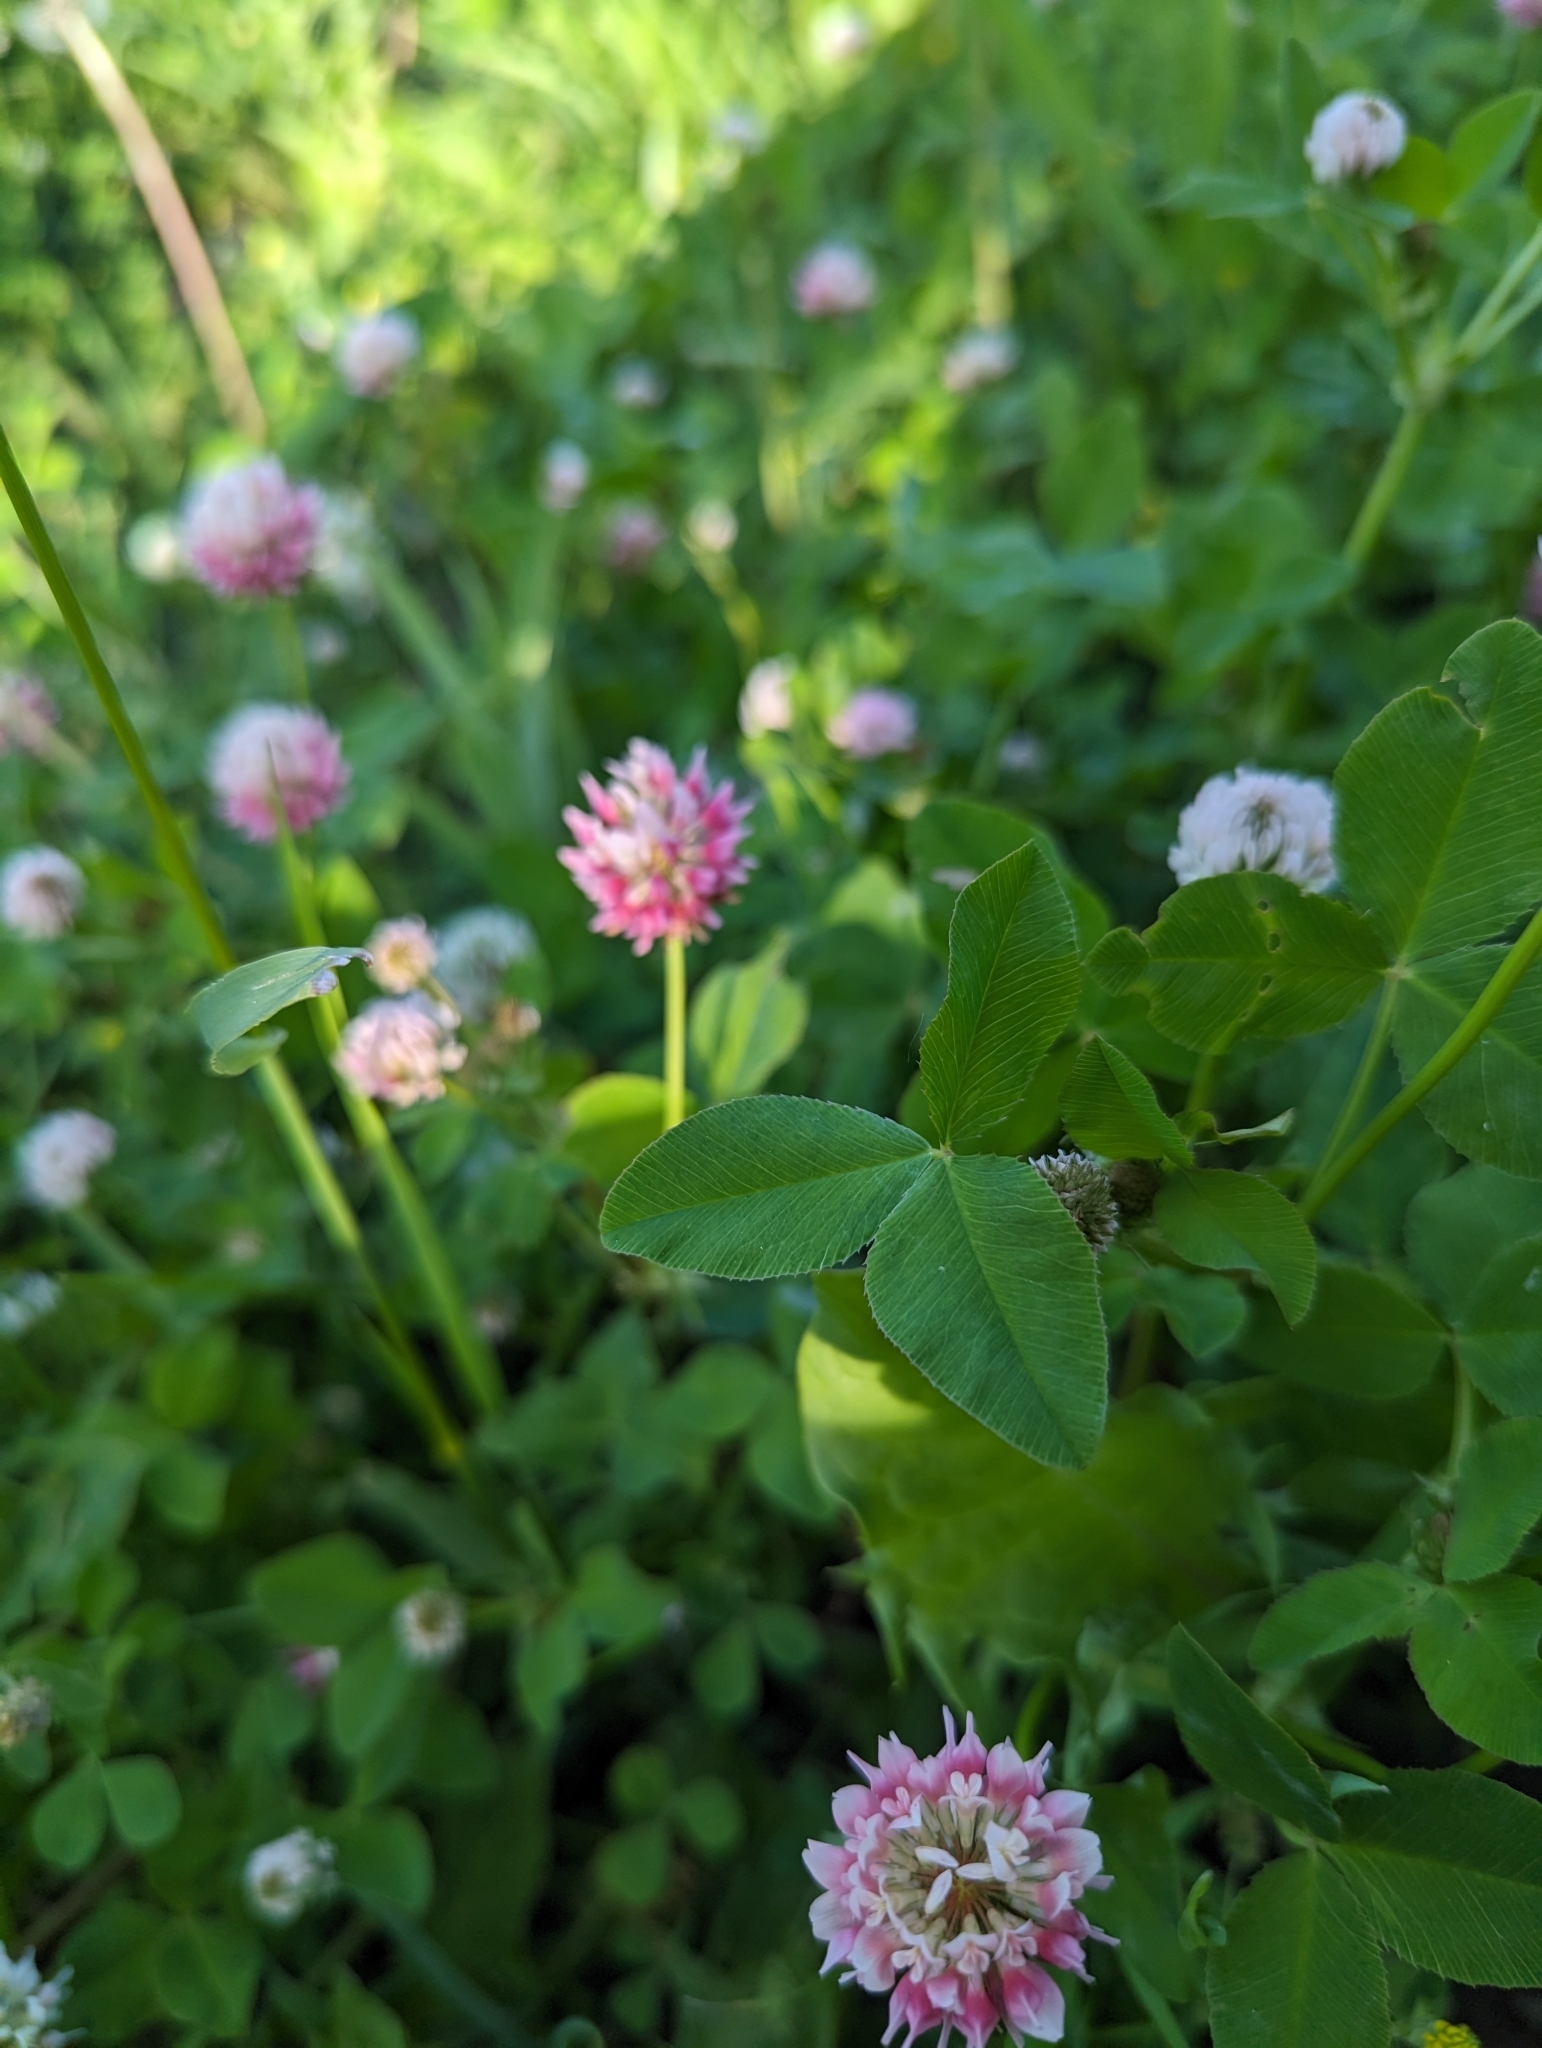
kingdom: Plantae
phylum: Tracheophyta
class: Magnoliopsida
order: Fabales
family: Fabaceae
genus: Trifolium
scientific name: Trifolium hybridum
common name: Alsike clover
